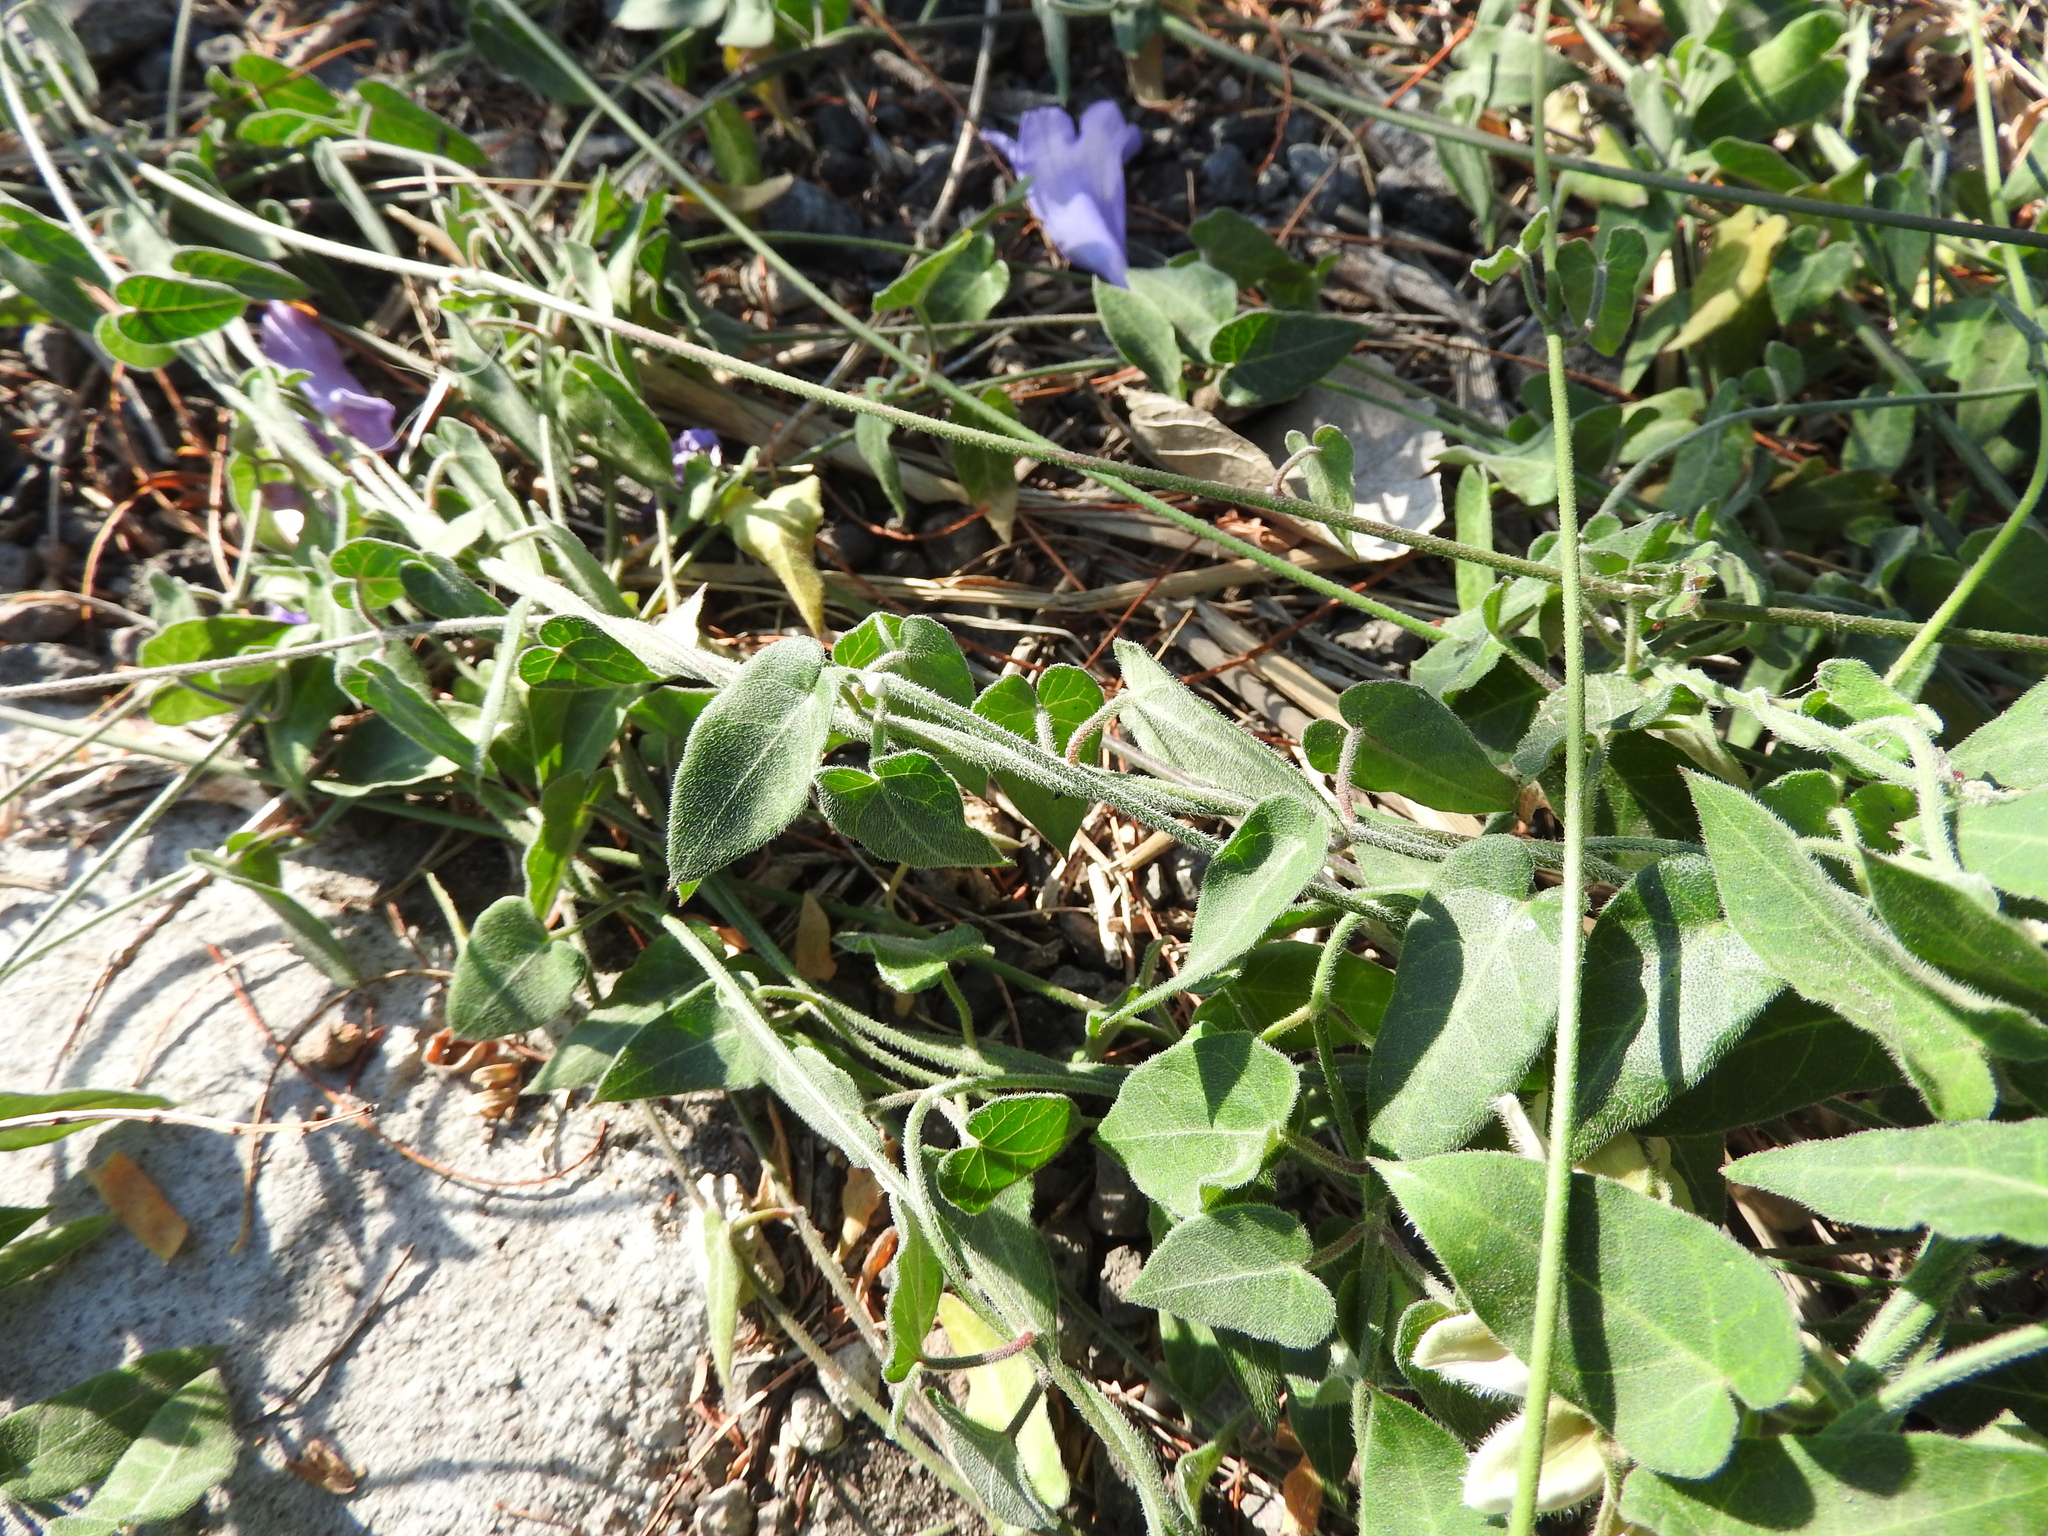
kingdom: Plantae
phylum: Tracheophyta
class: Magnoliopsida
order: Gentianales
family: Apocynaceae
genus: Funastrum
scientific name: Funastrum elegans
